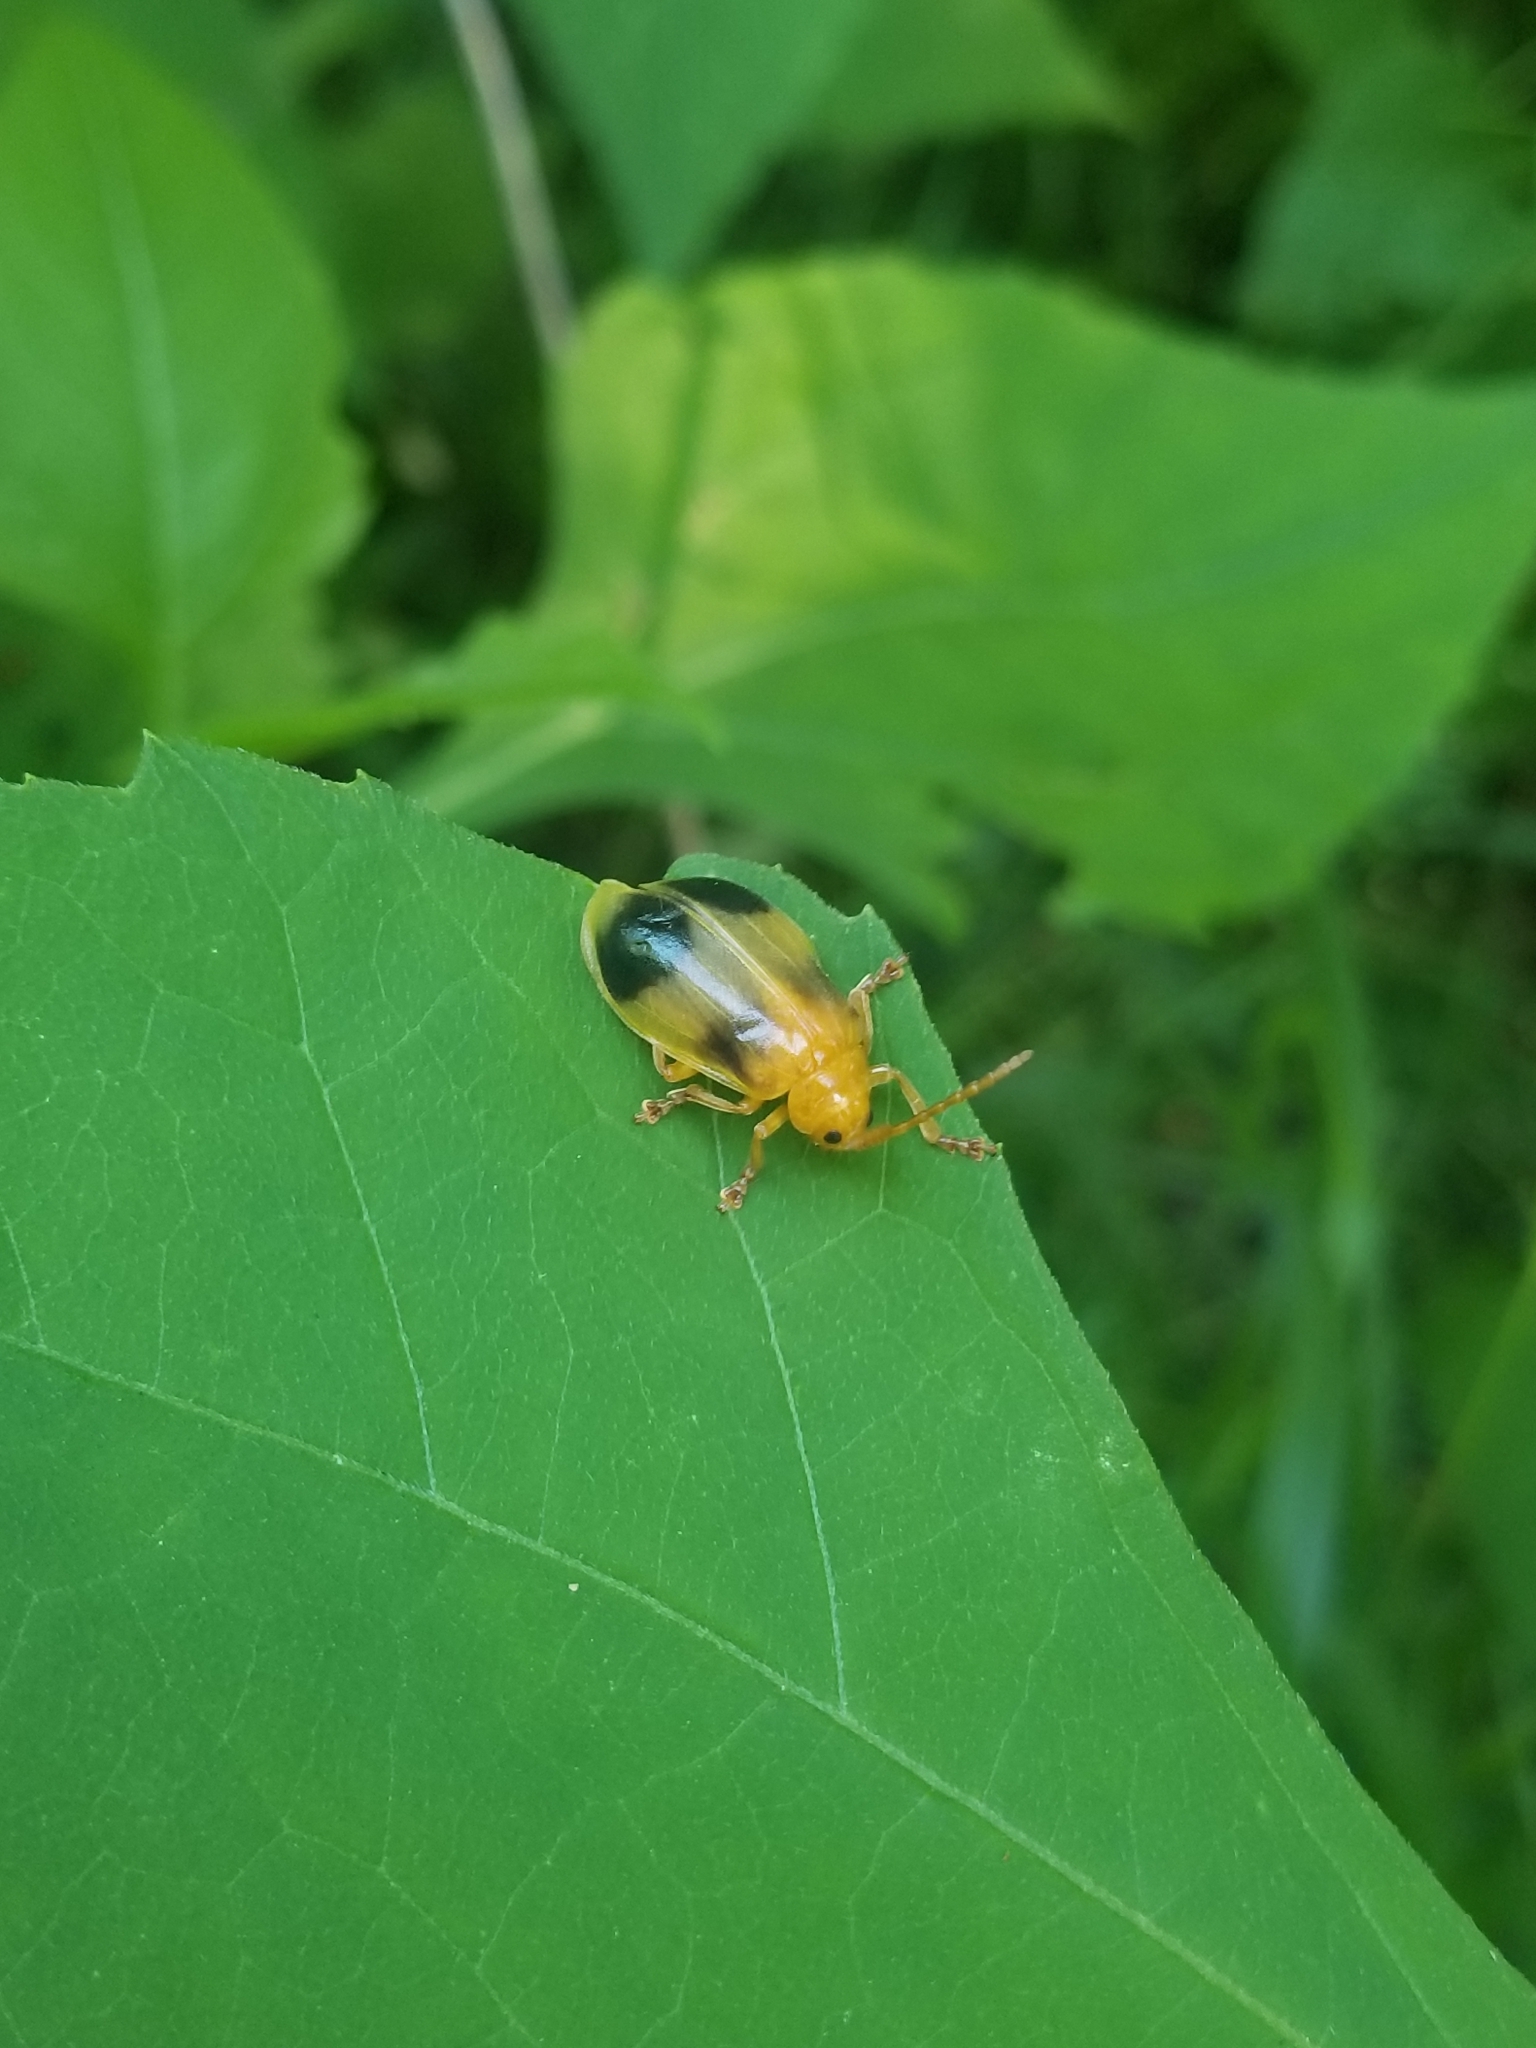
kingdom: Animalia
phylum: Arthropoda
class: Insecta
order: Coleoptera
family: Chrysomelidae
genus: Monocesta
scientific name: Monocesta coryli
